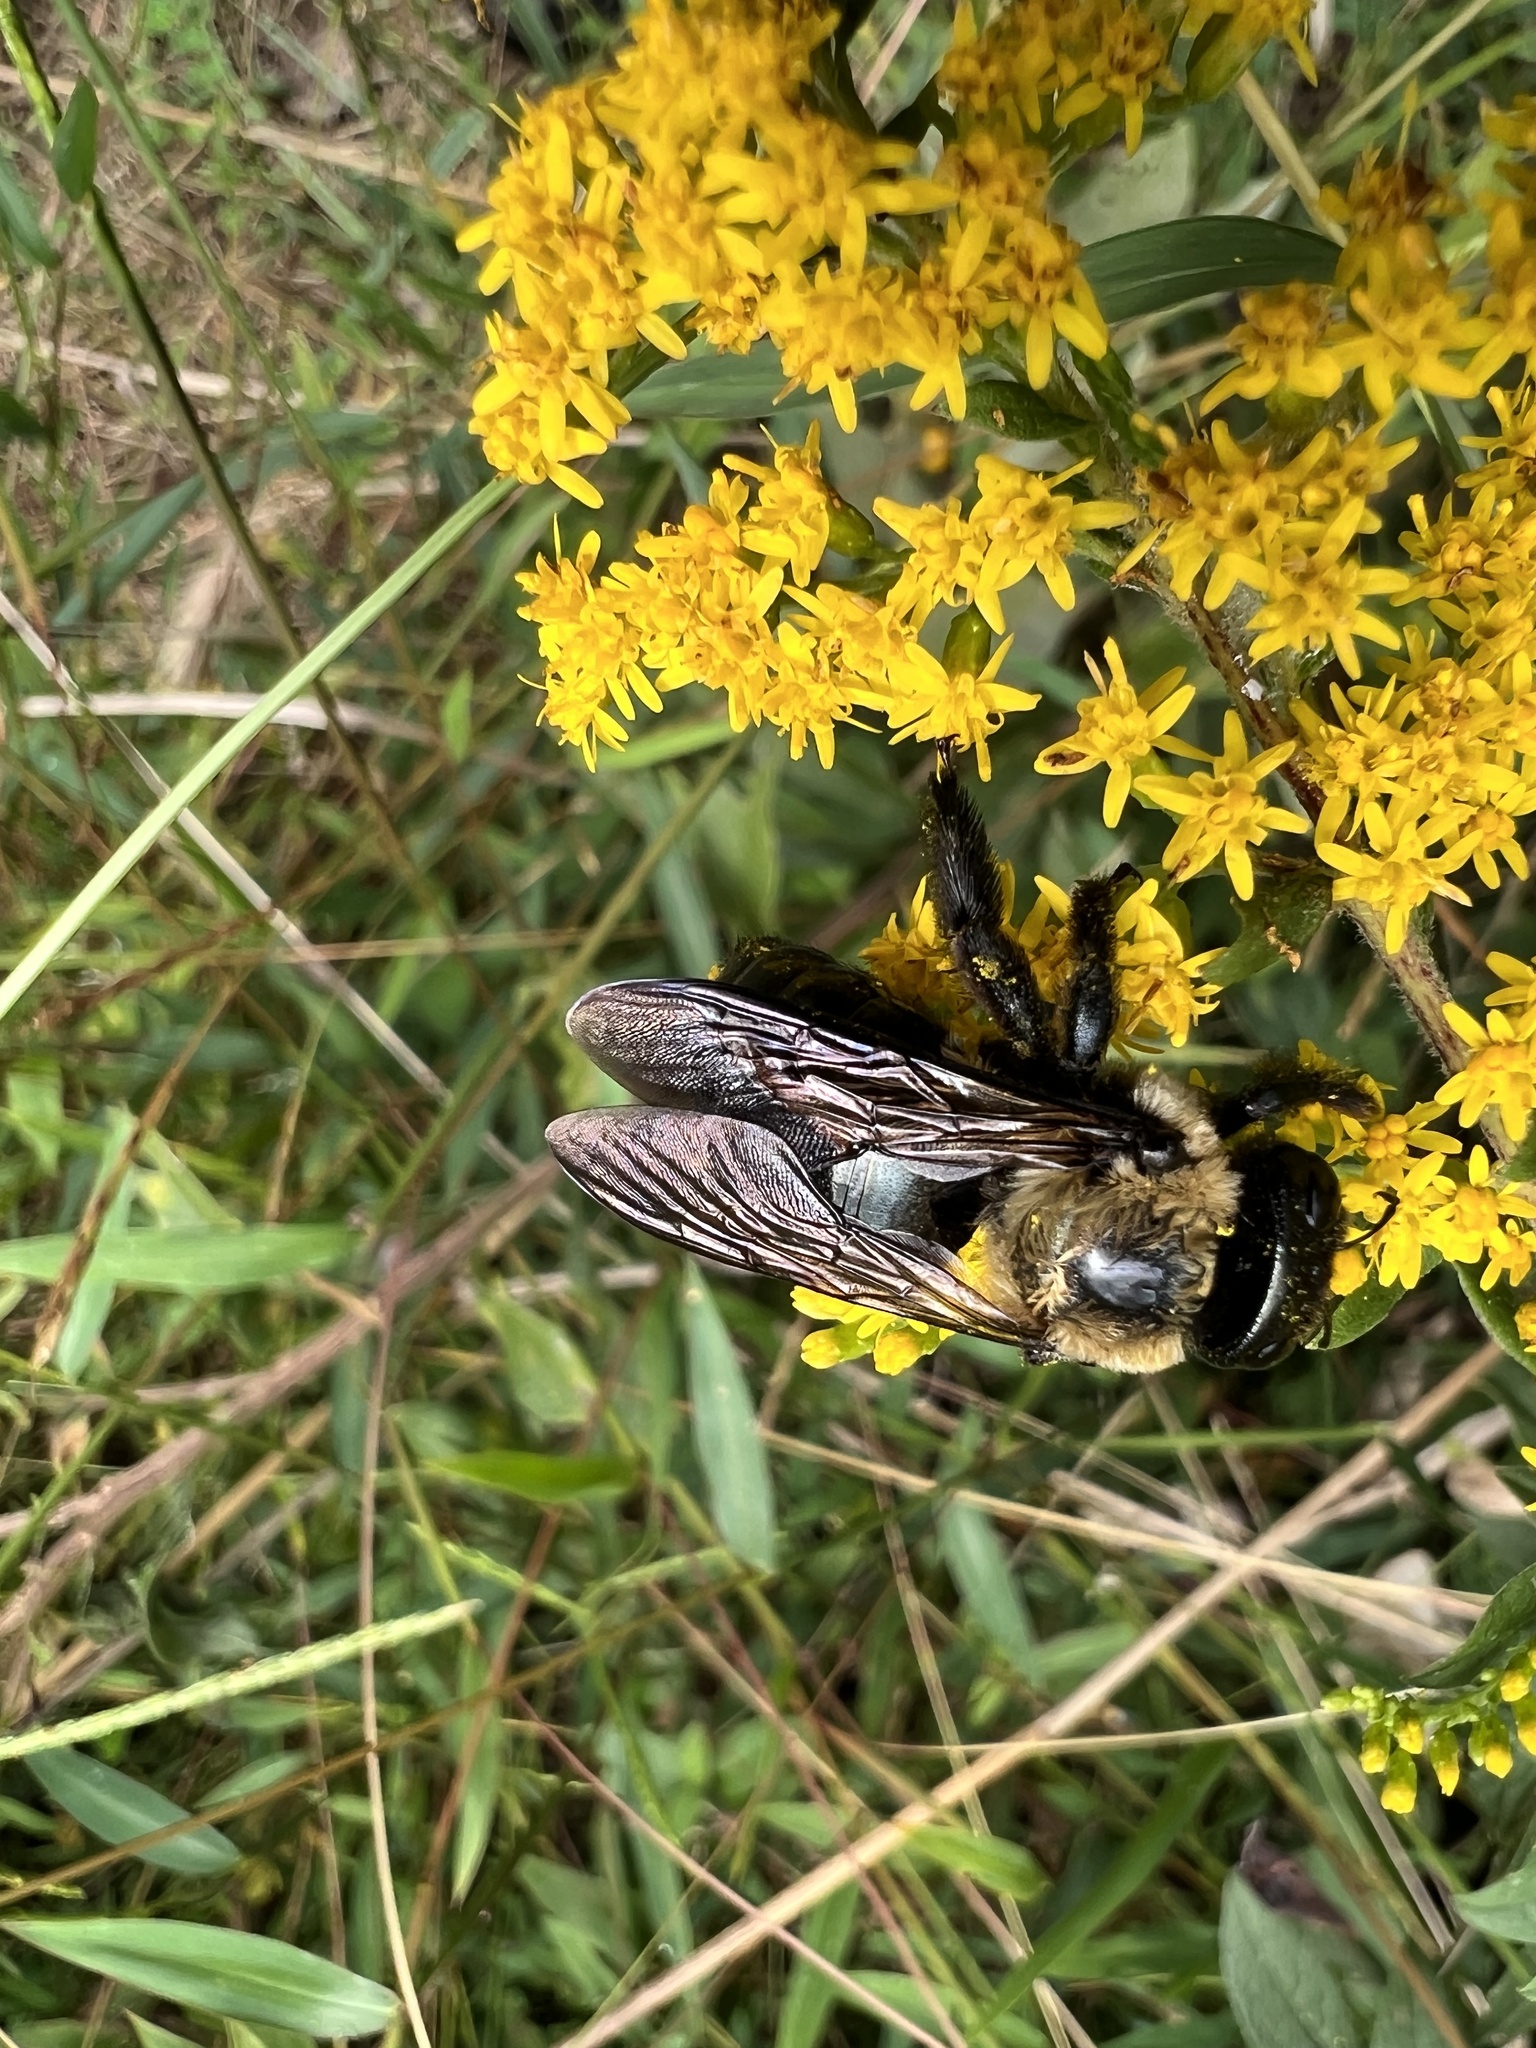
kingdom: Animalia
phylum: Arthropoda
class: Insecta
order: Hymenoptera
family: Apidae
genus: Xylocopa
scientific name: Xylocopa virginica
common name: Carpenter bee
